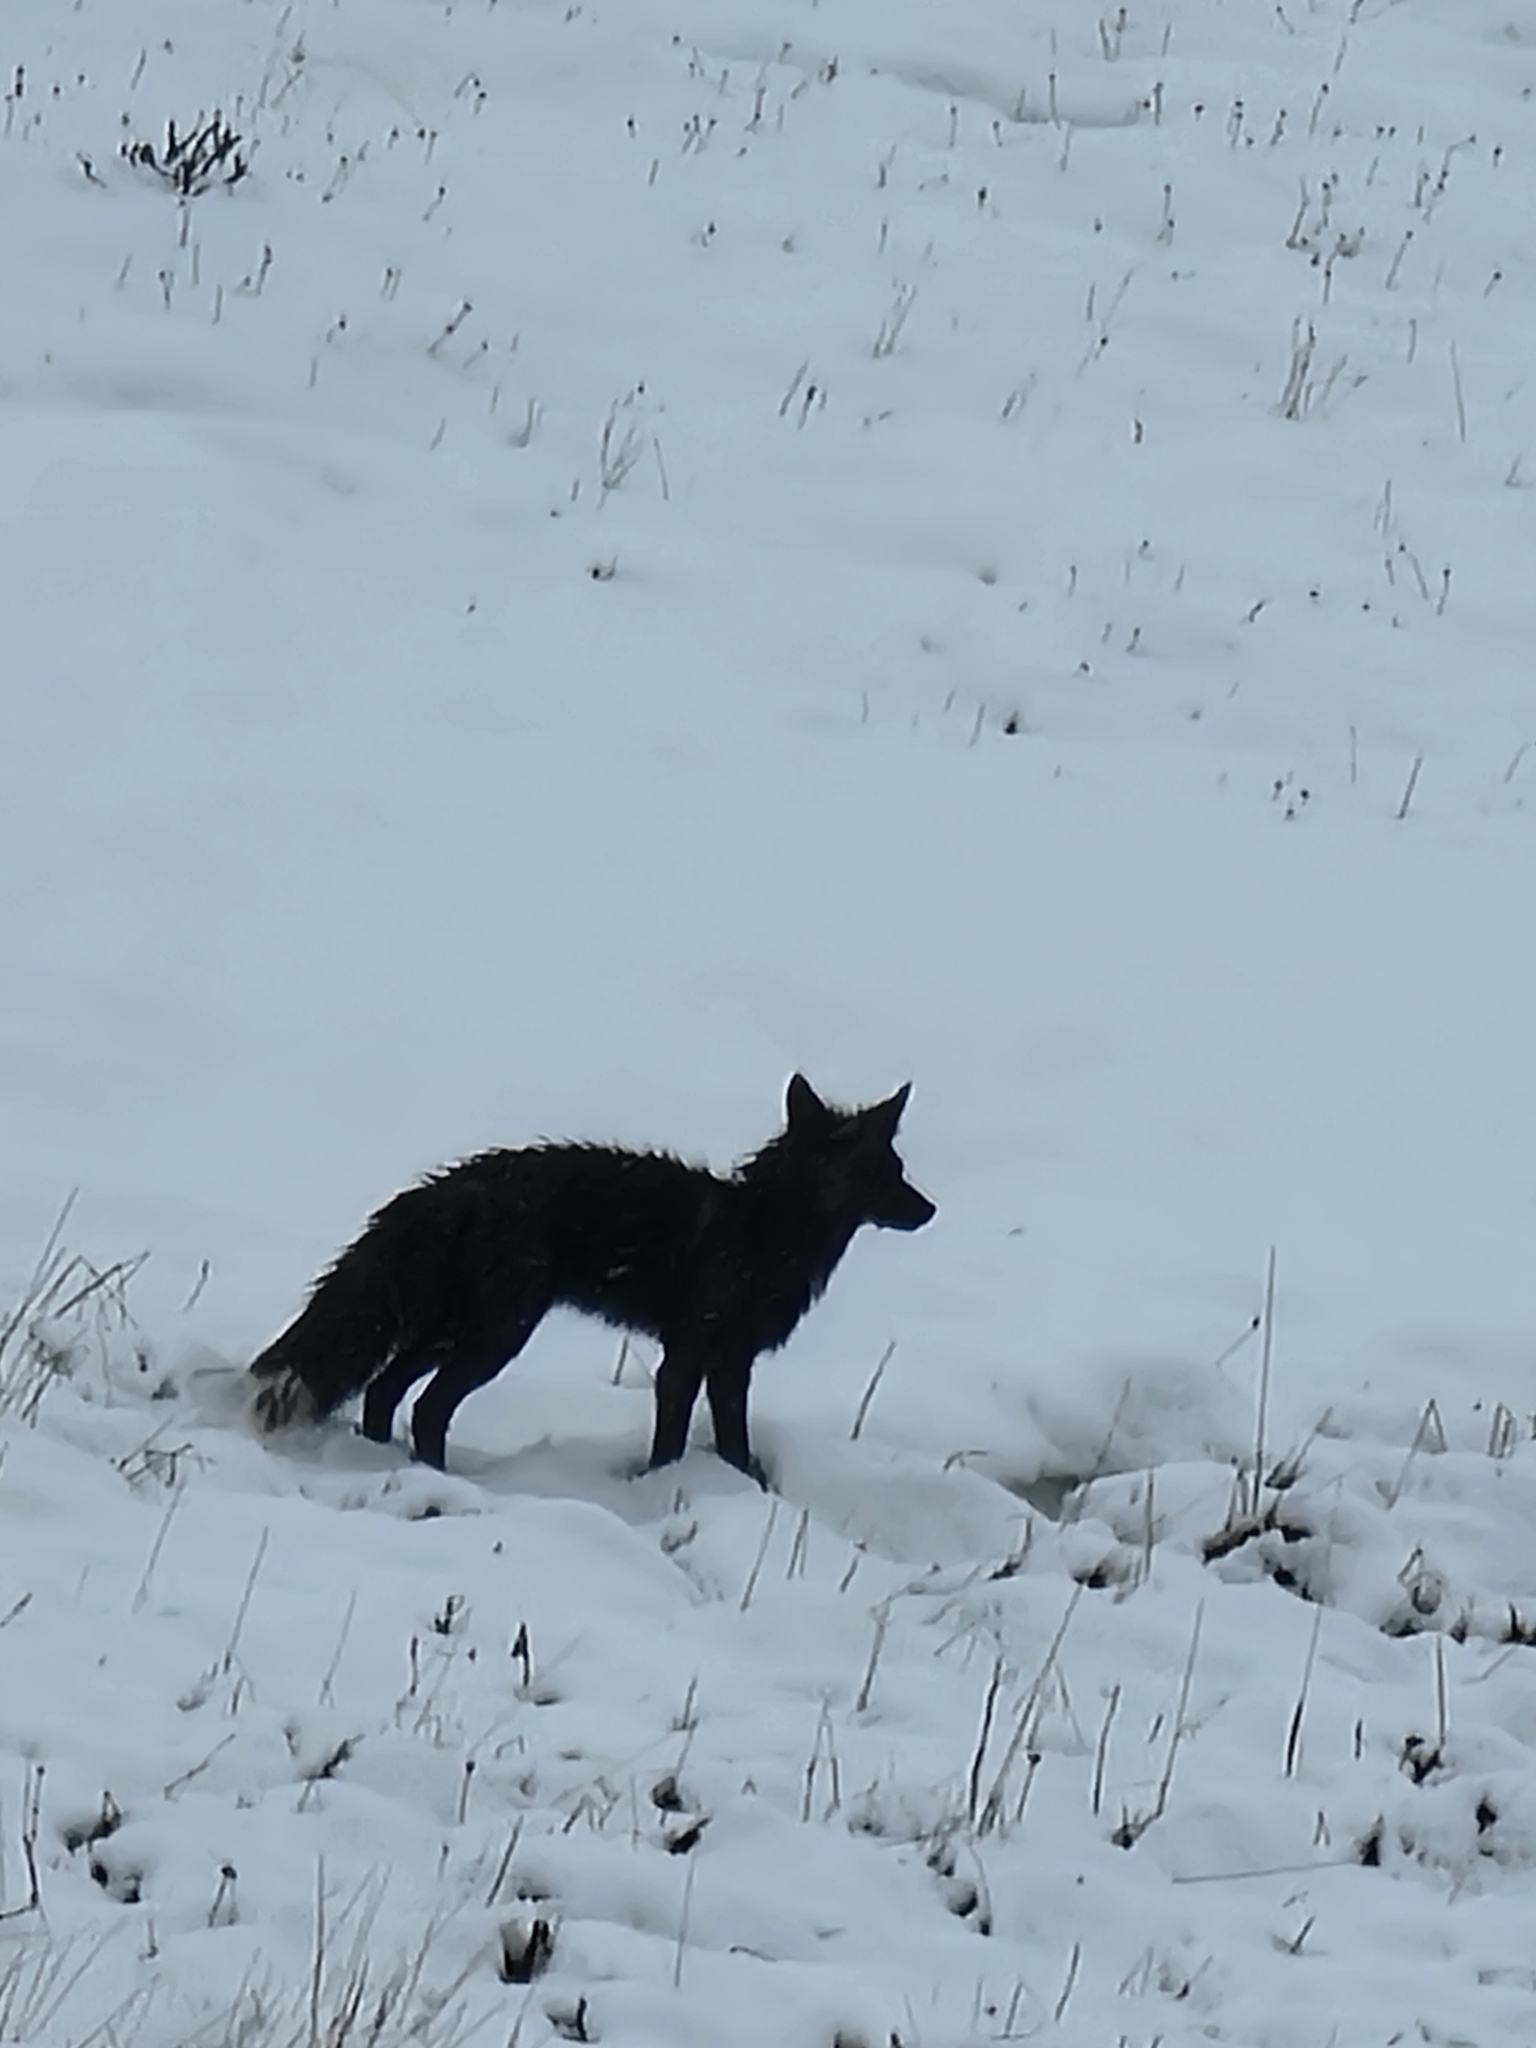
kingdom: Animalia
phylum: Chordata
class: Mammalia
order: Carnivora
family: Canidae
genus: Vulpes
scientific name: Vulpes vulpes
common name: Red fox
